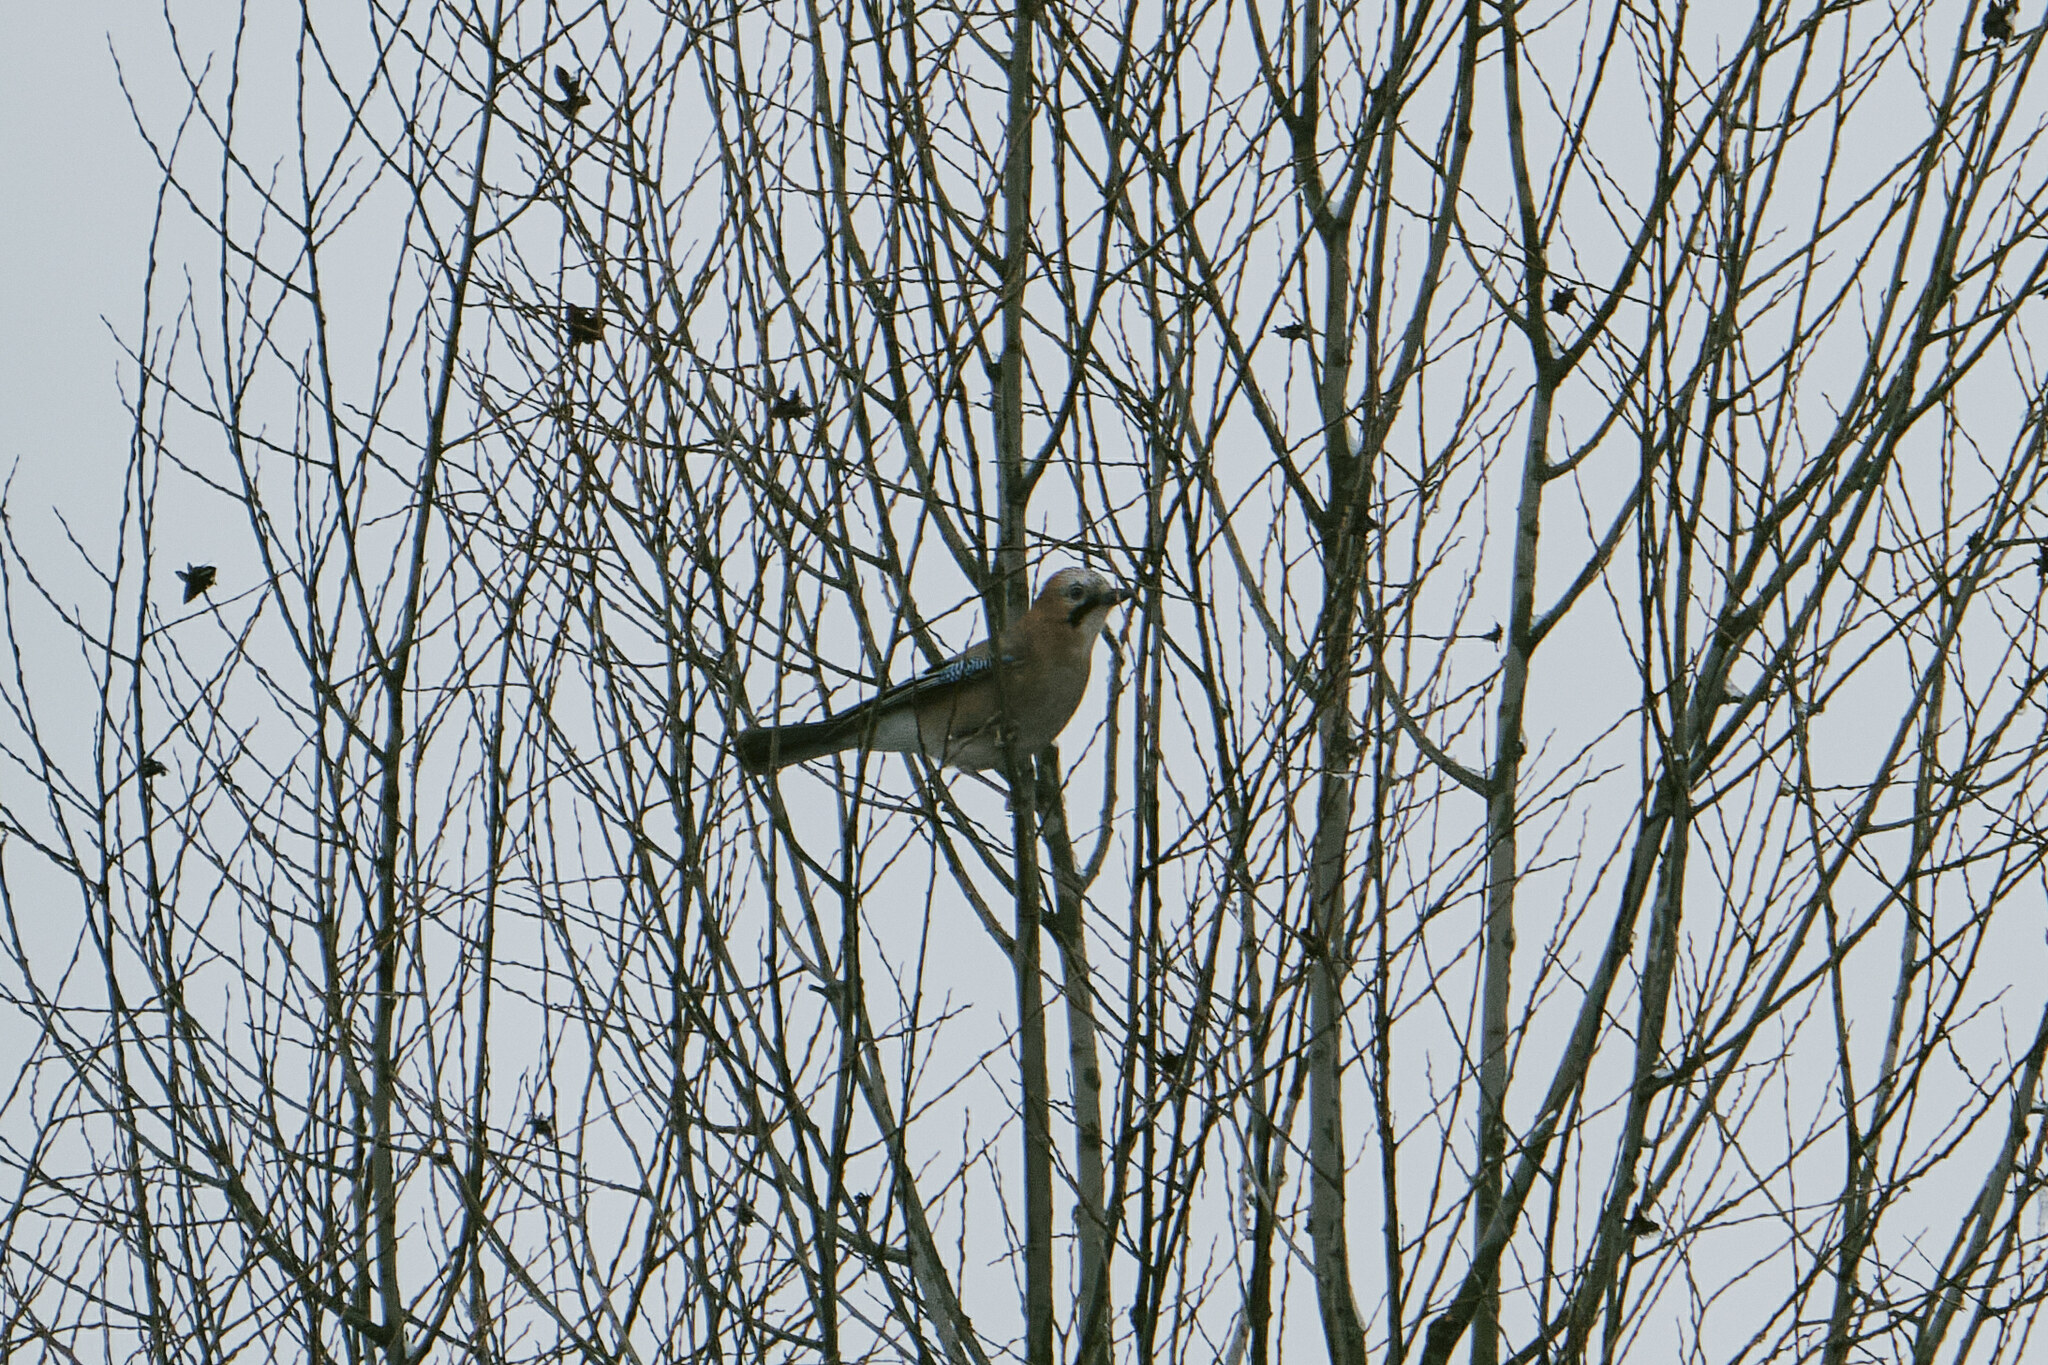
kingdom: Animalia
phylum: Chordata
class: Aves
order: Passeriformes
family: Corvidae
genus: Garrulus
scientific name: Garrulus glandarius
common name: Eurasian jay
